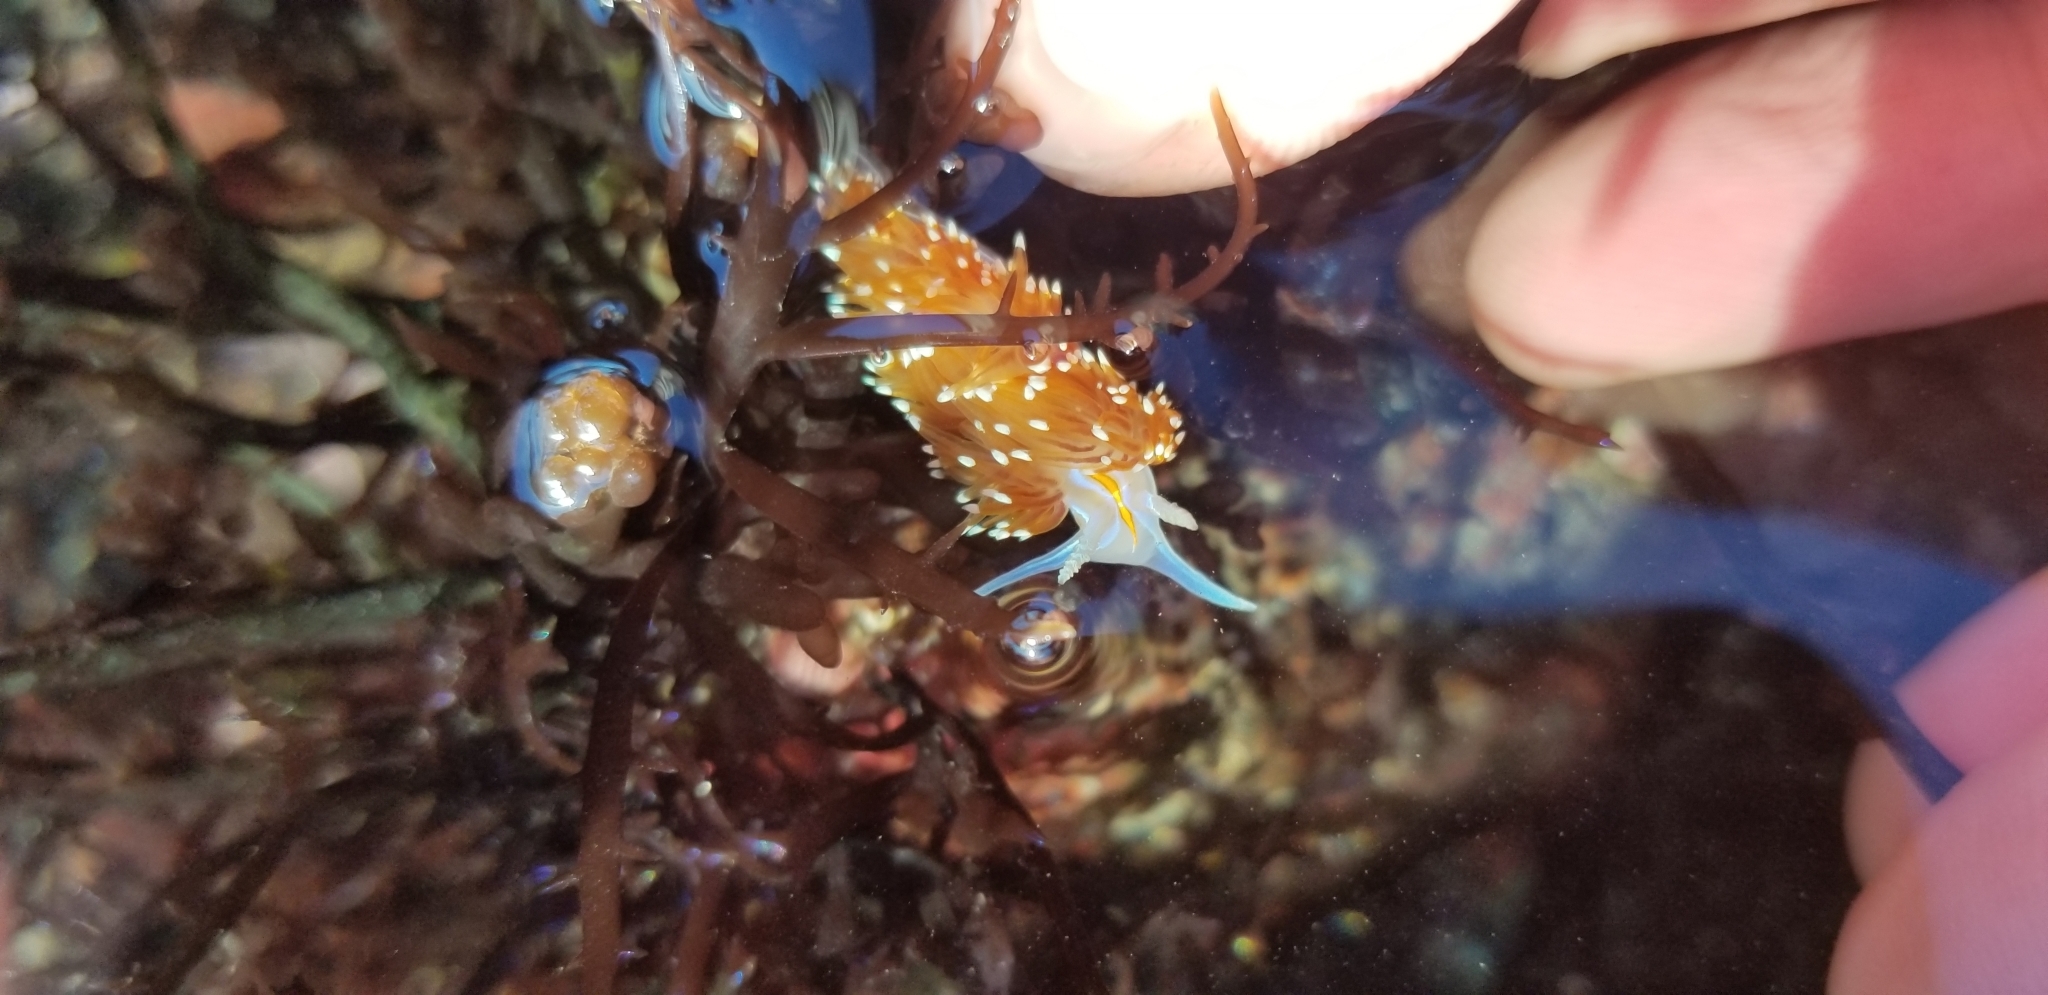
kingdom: Animalia
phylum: Mollusca
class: Gastropoda
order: Nudibranchia
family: Myrrhinidae
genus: Hermissenda
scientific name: Hermissenda opalescens
